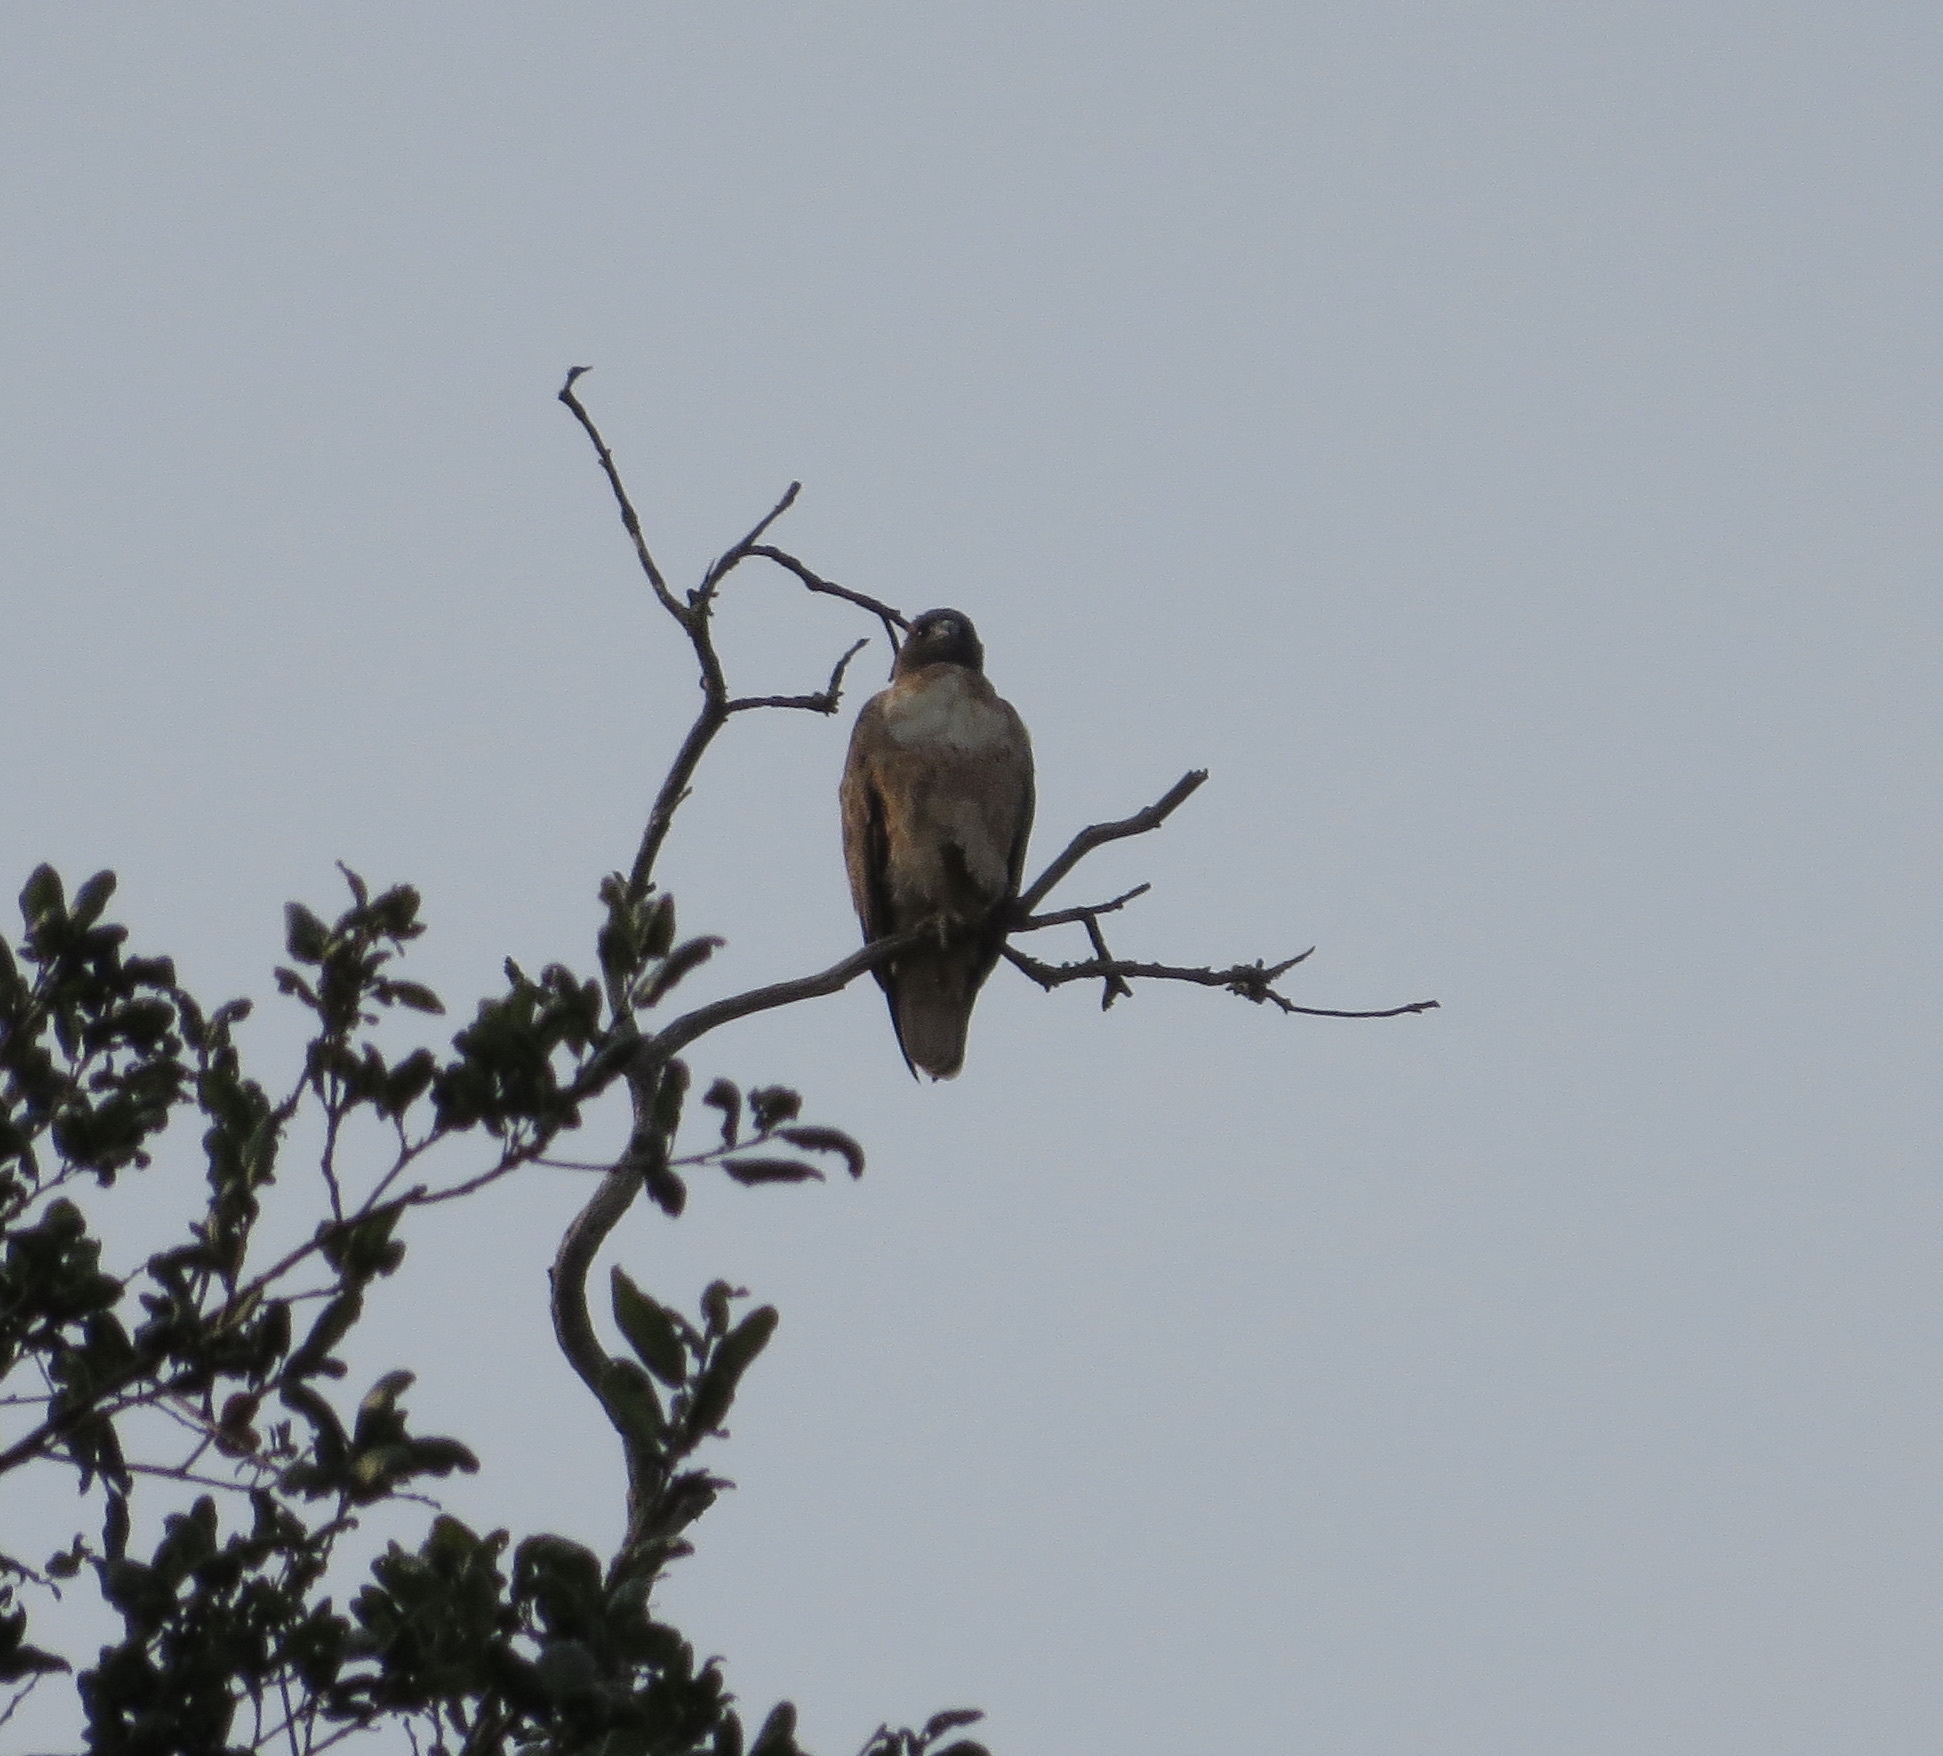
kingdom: Animalia
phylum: Chordata
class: Aves
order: Accipitriformes
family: Accipitridae
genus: Buteo
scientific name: Buteo jamaicensis
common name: Red-tailed hawk
